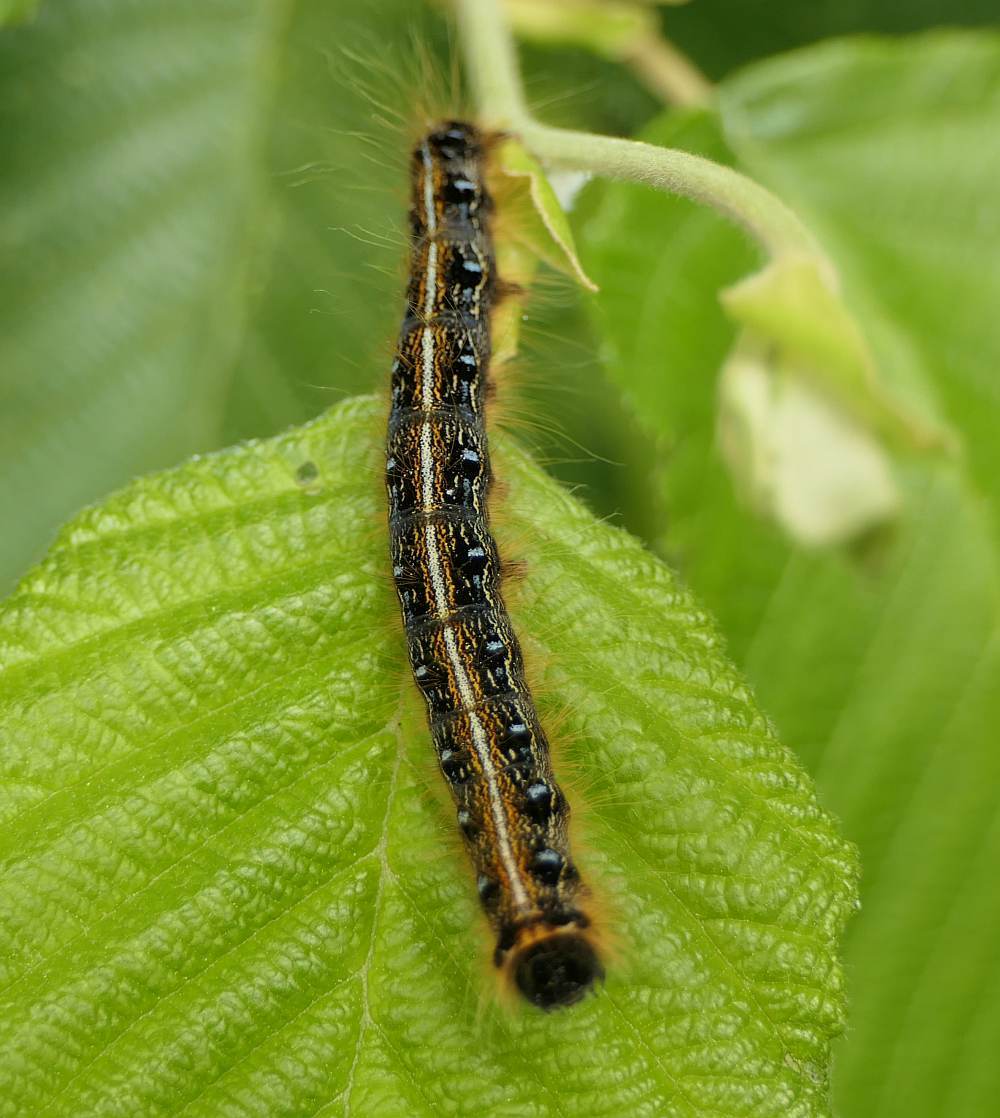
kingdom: Animalia
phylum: Arthropoda
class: Insecta
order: Lepidoptera
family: Lasiocampidae
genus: Malacosoma
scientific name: Malacosoma americana
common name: Eastern tent caterpillar moth
